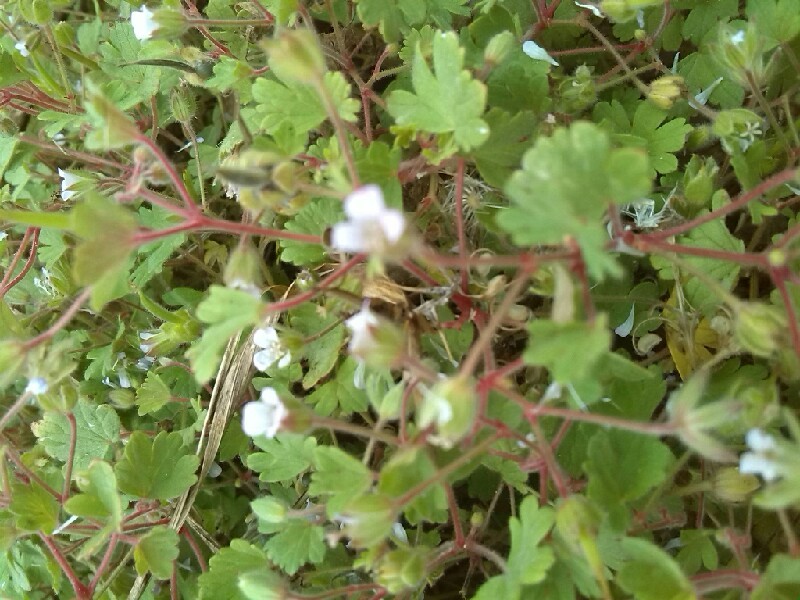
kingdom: Plantae
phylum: Tracheophyta
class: Magnoliopsida
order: Geraniales
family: Geraniaceae
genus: Geranium
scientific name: Geranium rotundifolium
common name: Round-leaved crane's-bill
